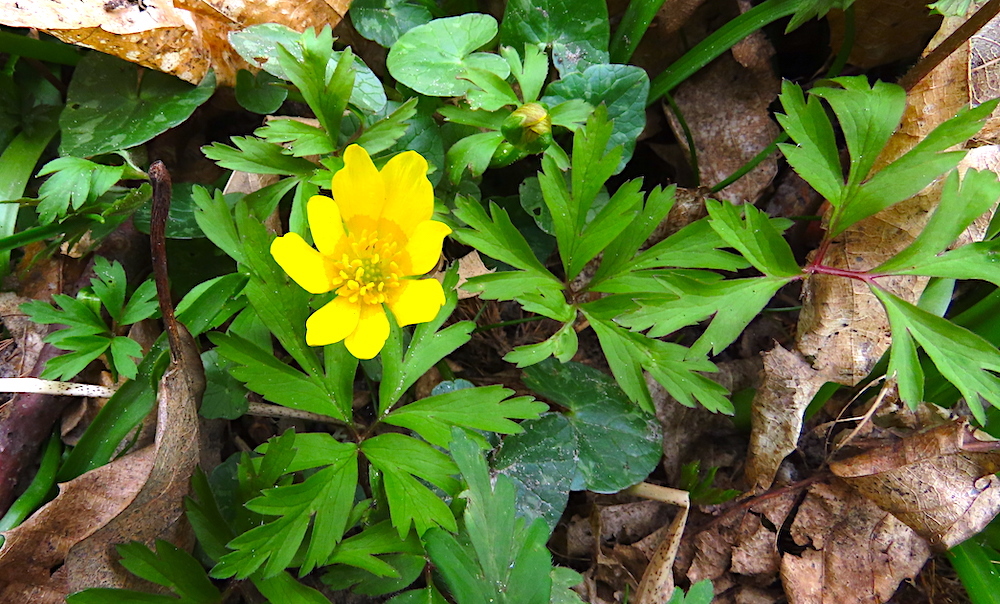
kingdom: Plantae
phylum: Tracheophyta
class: Magnoliopsida
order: Ranunculales
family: Ranunculaceae
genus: Anemone
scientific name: Anemone nemorosa
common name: Wood anemone
